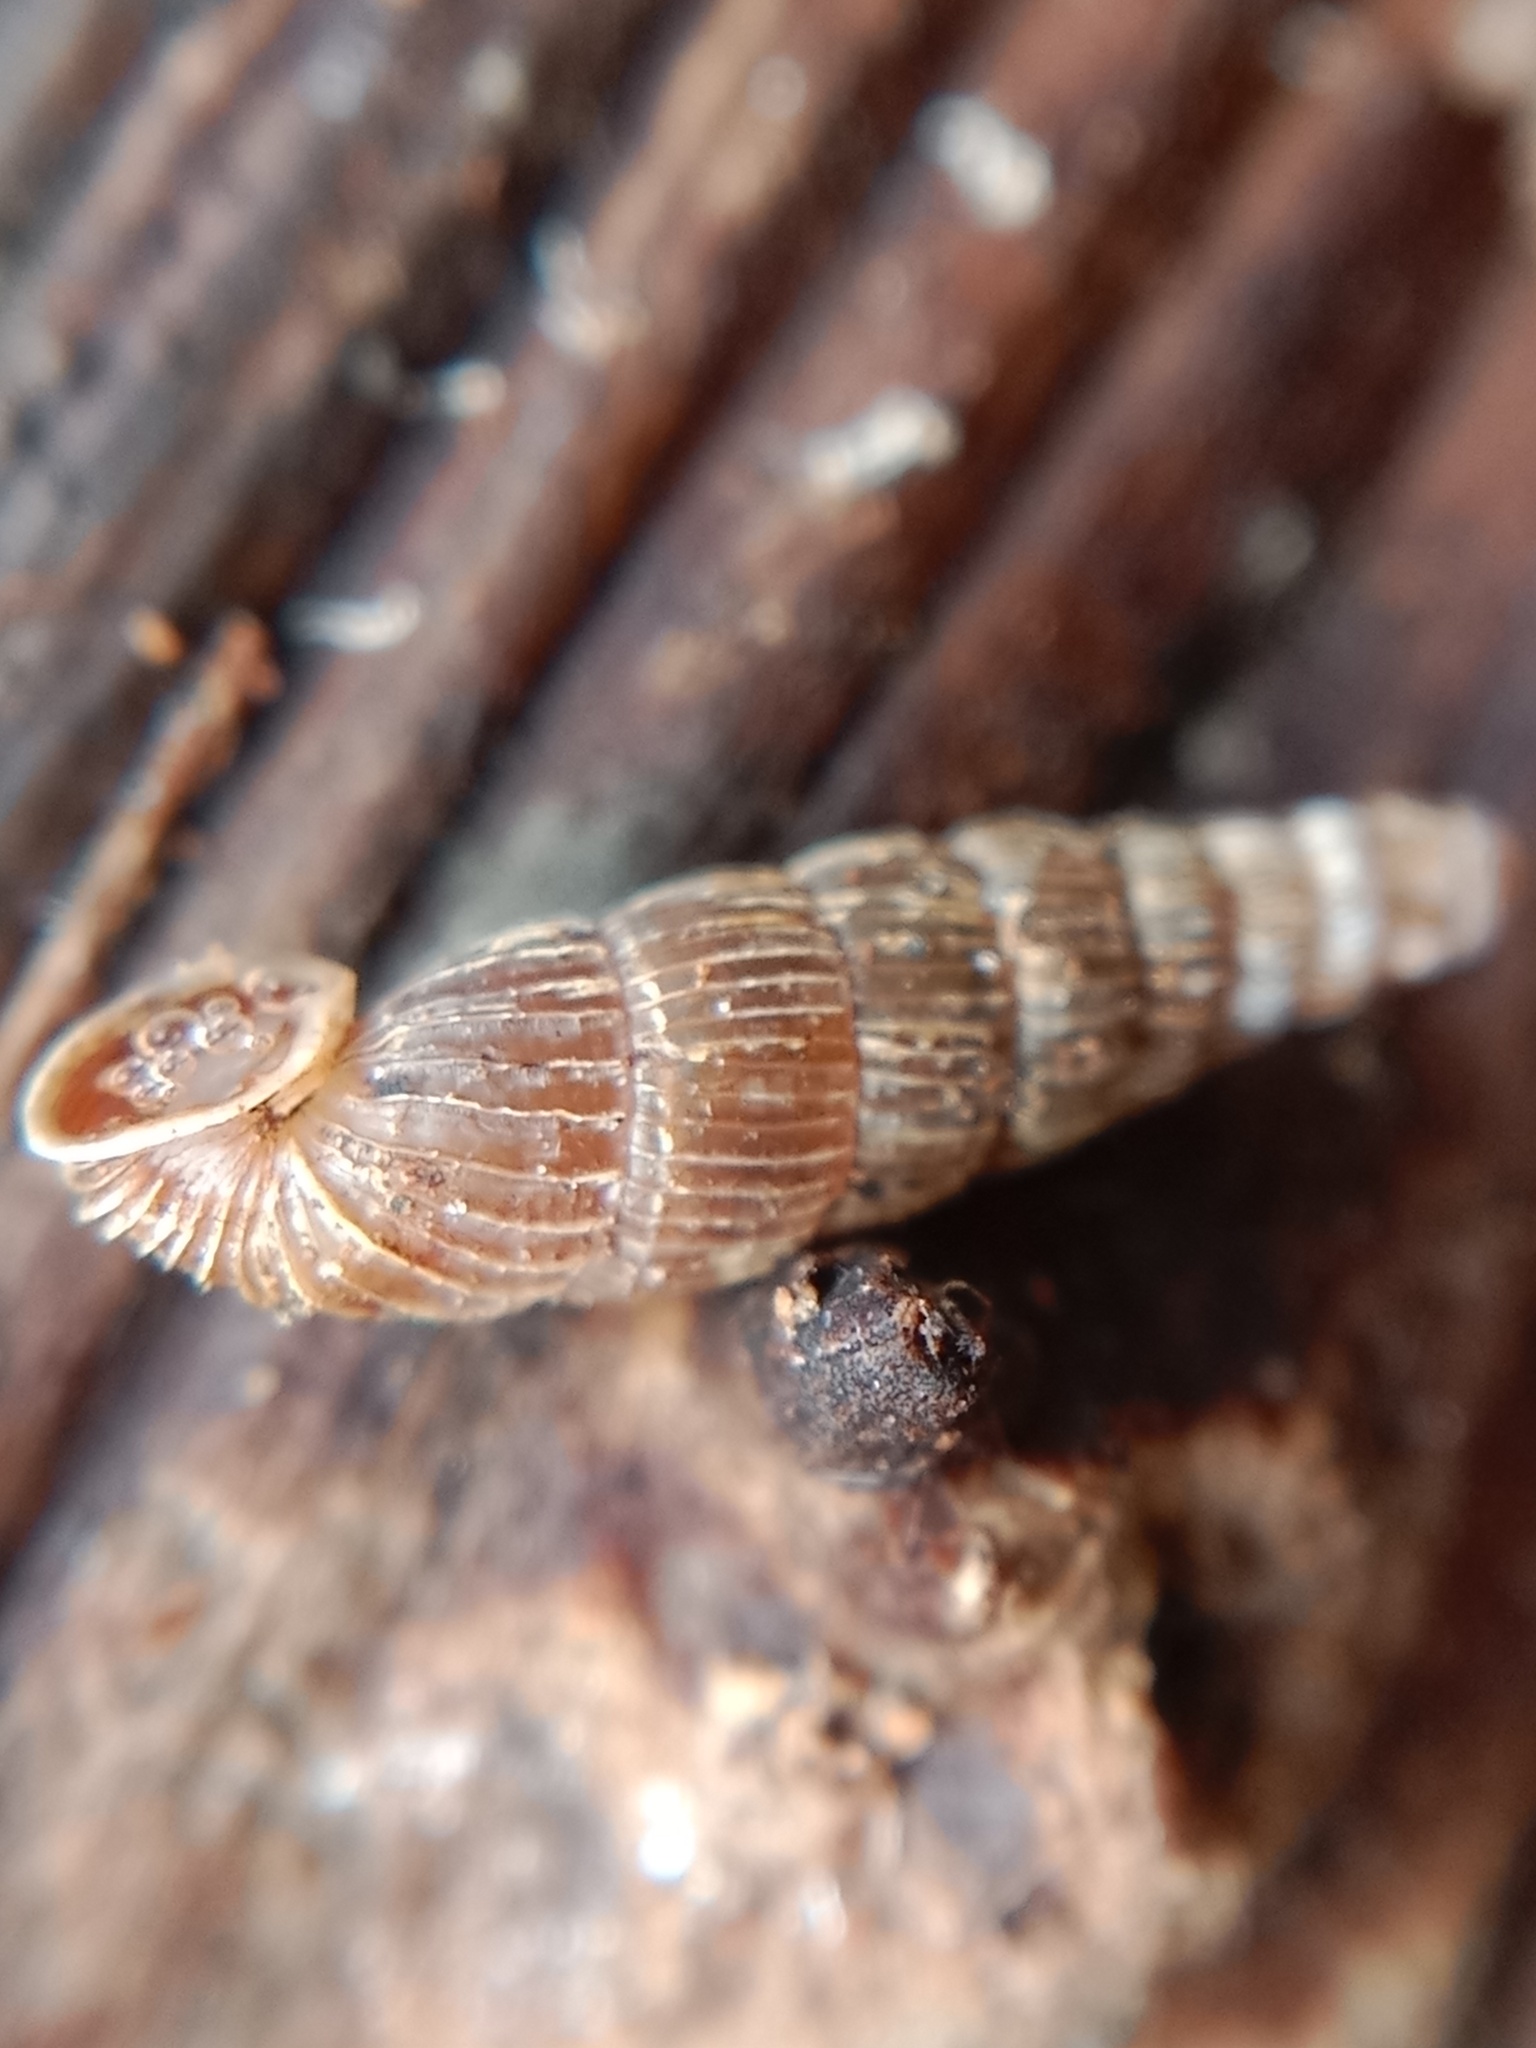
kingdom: Animalia
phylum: Mollusca
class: Gastropoda
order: Stylommatophora
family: Clausiliidae
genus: Ruthenica
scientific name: Ruthenica filograna
